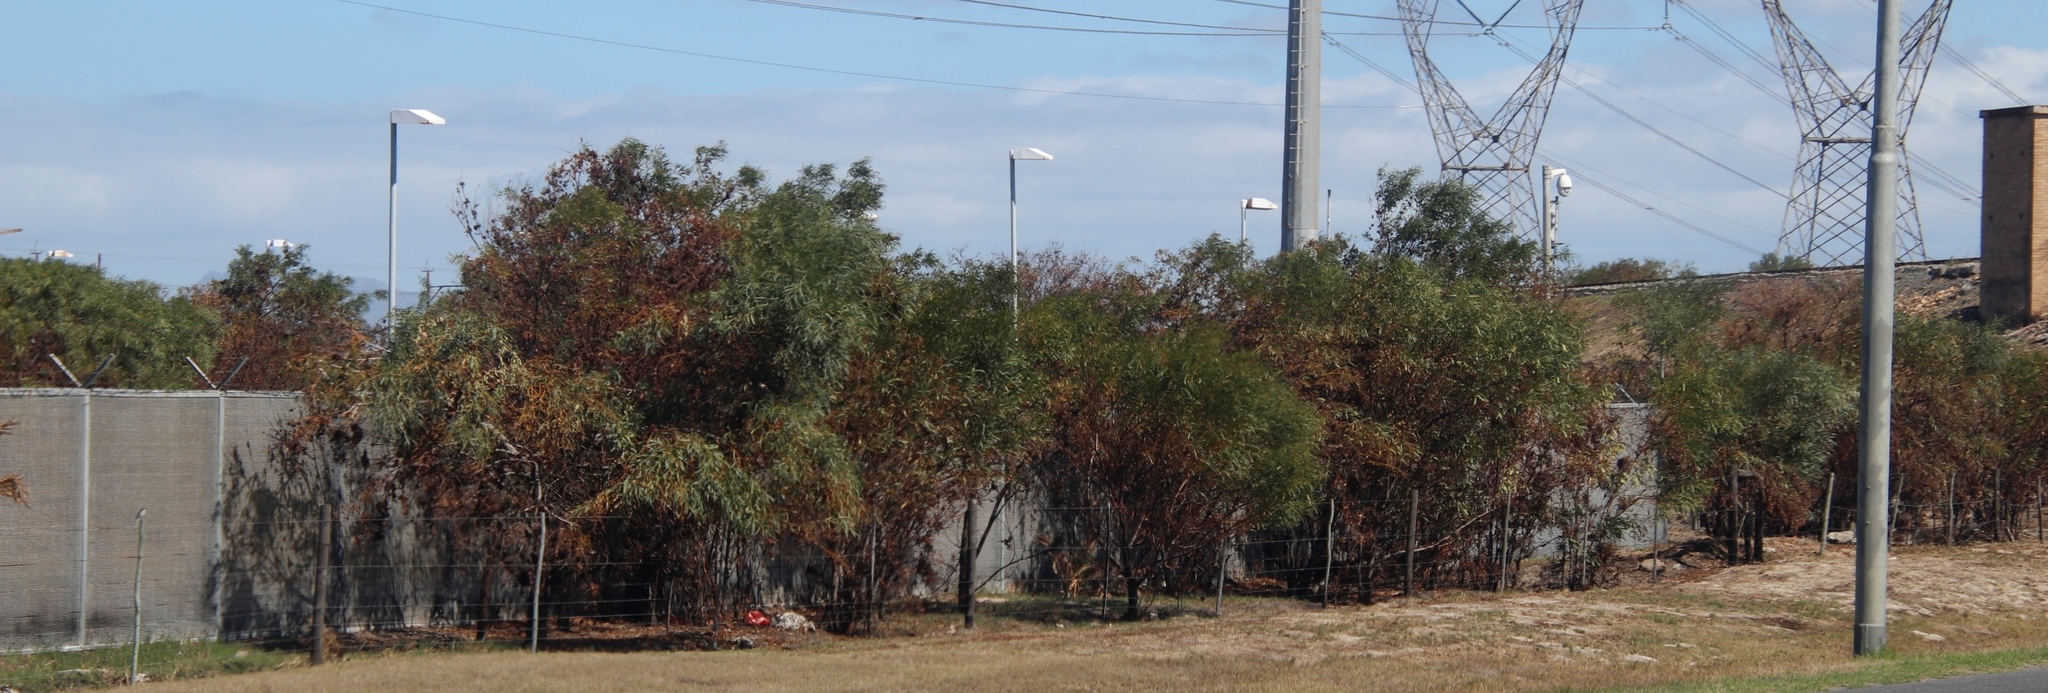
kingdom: Plantae
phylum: Tracheophyta
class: Magnoliopsida
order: Fabales
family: Fabaceae
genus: Acacia
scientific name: Acacia saligna
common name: Orange wattle
